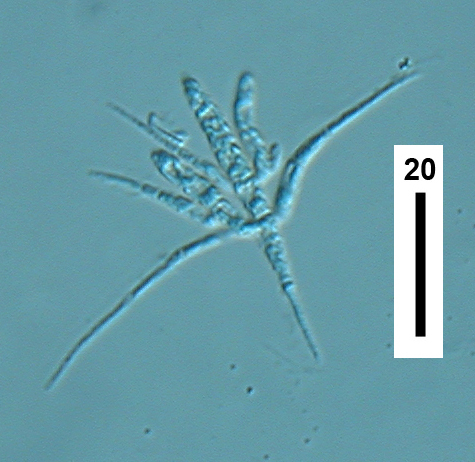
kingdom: Fungi
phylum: Ascomycota
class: Leotiomycetes
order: Helotiales
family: Helotiaceae
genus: Tetracladium
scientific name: Tetracladium setigerum
